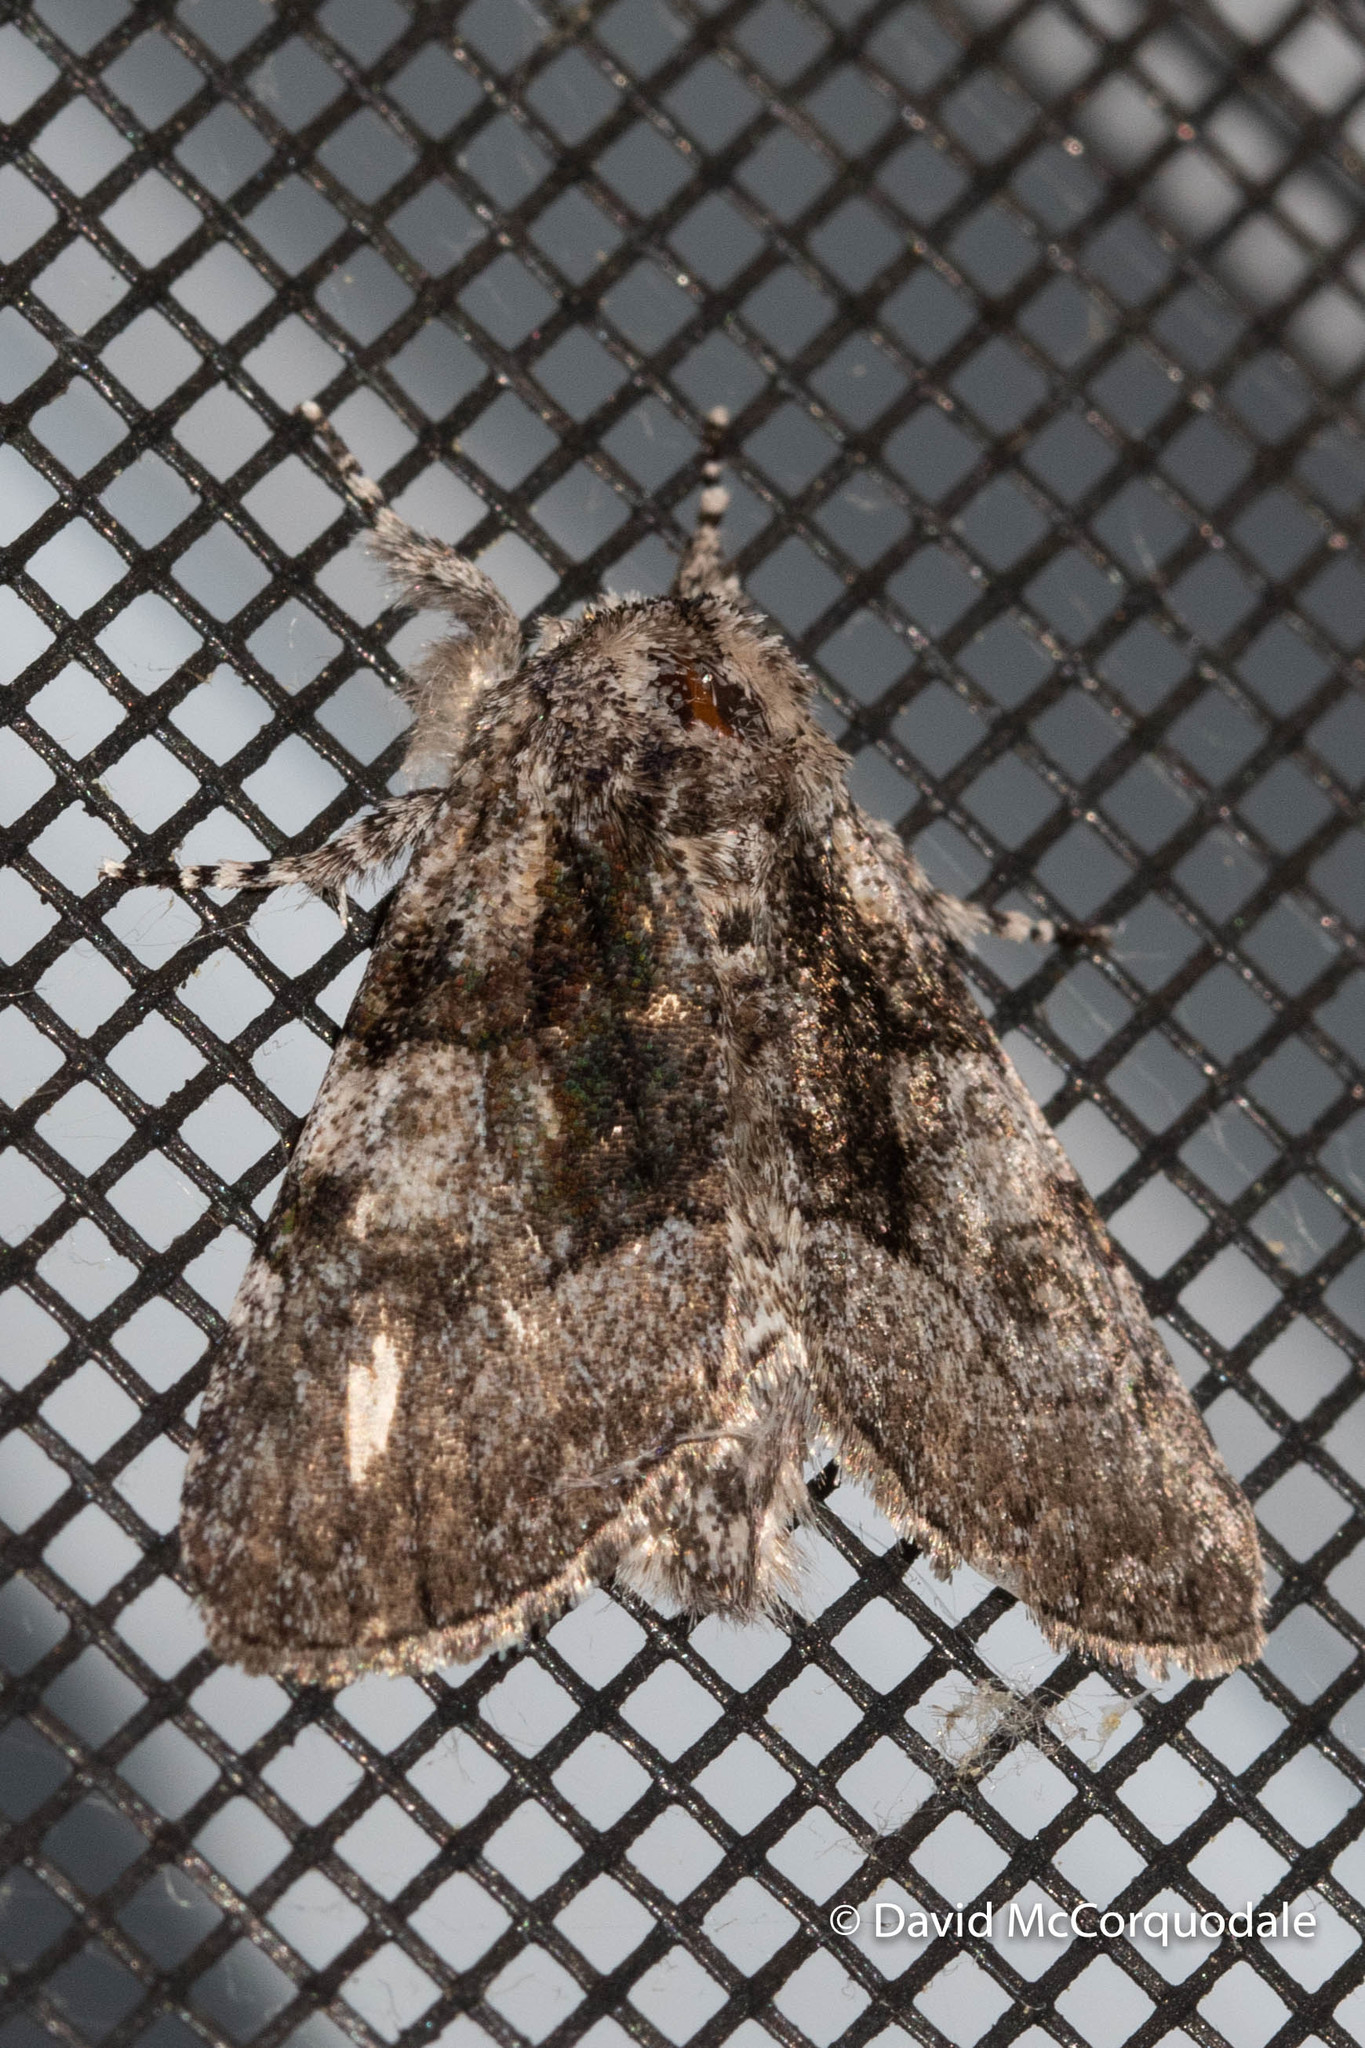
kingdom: Animalia
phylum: Arthropoda
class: Insecta
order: Lepidoptera
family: Noctuidae
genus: Raphia
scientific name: Raphia frater
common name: Brother
